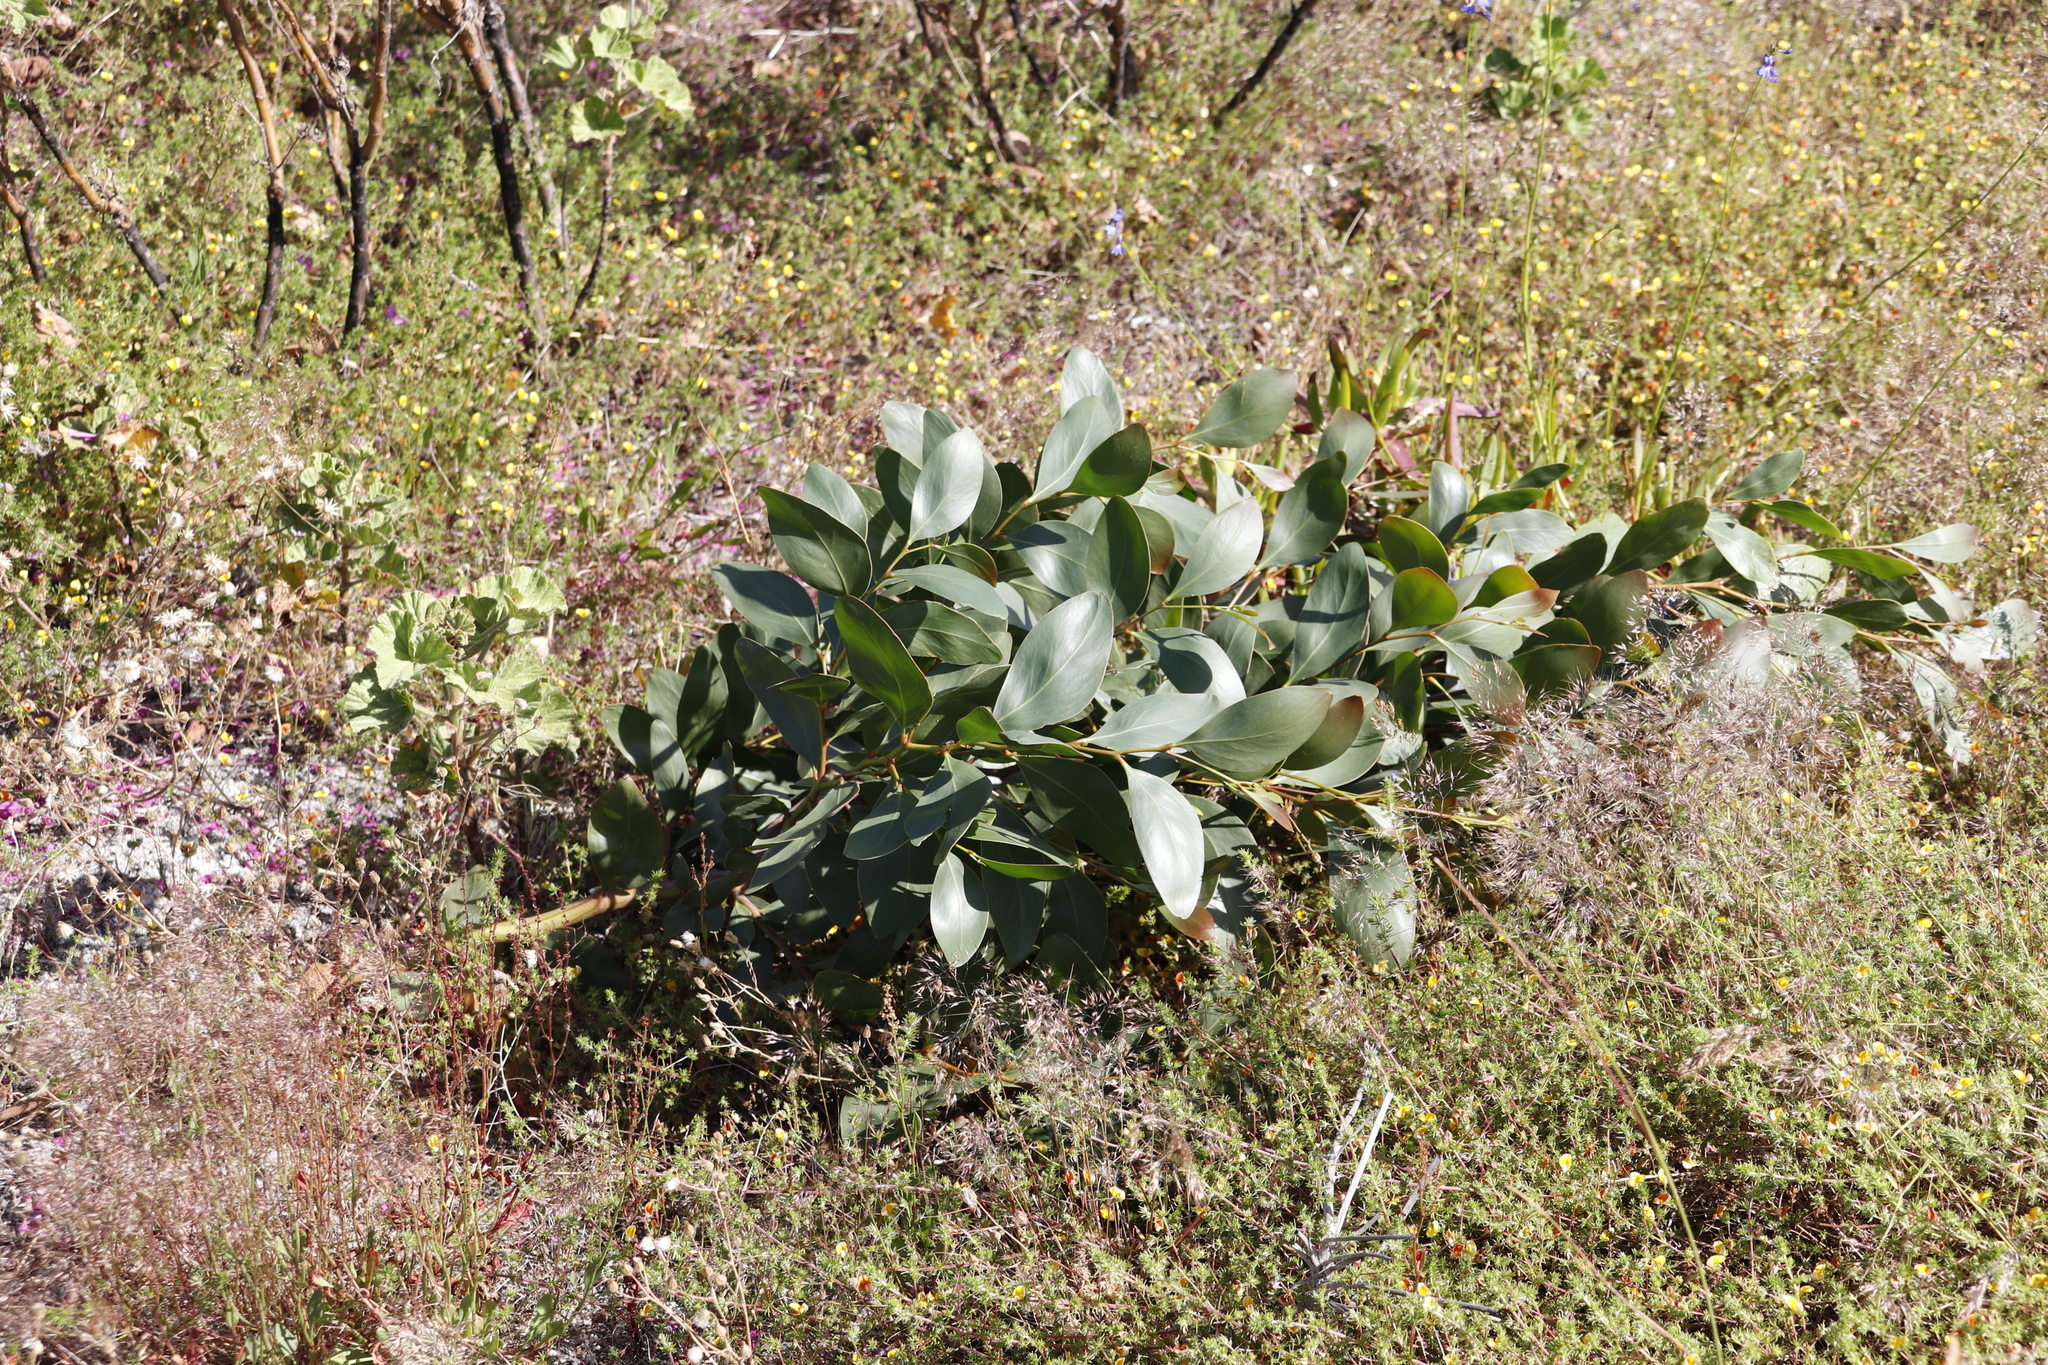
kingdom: Plantae
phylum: Tracheophyta
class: Magnoliopsida
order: Fabales
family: Fabaceae
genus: Acacia
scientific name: Acacia pycnantha
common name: Golden wattle
